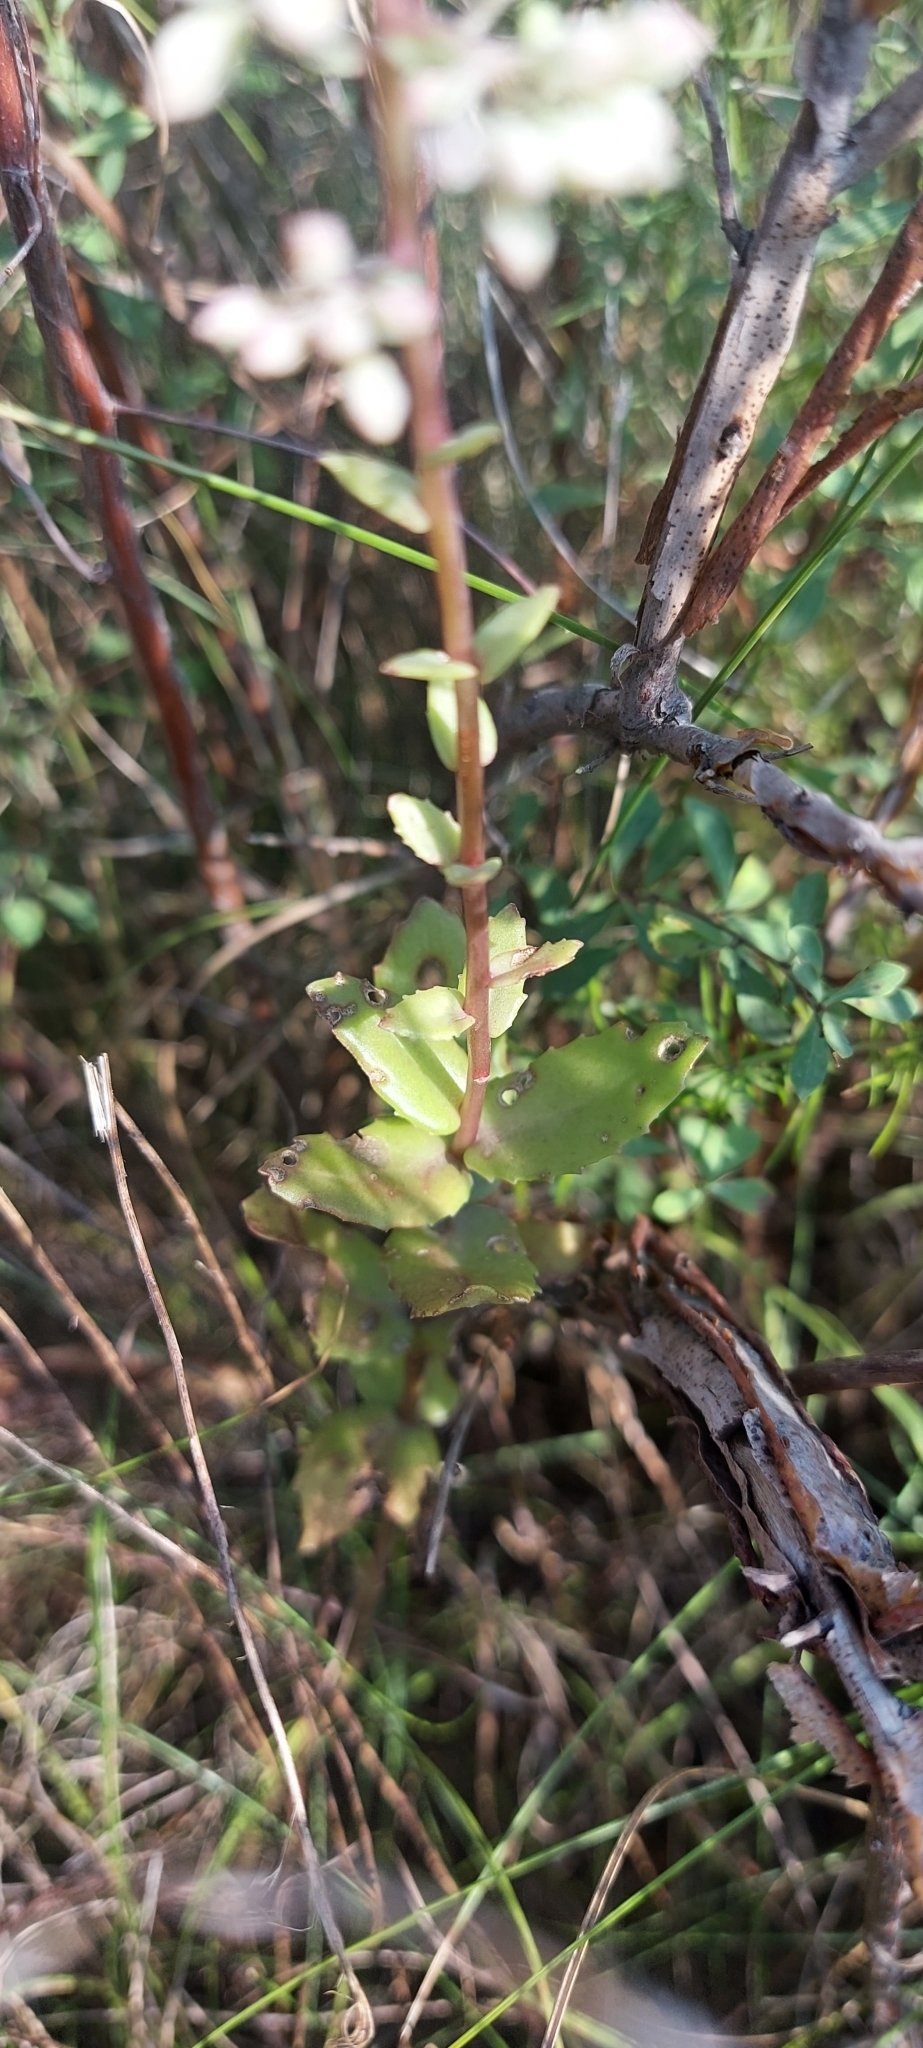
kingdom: Plantae
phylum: Tracheophyta
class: Magnoliopsida
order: Saxifragales
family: Crassulaceae
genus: Hylotelephium
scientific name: Hylotelephium maximum
